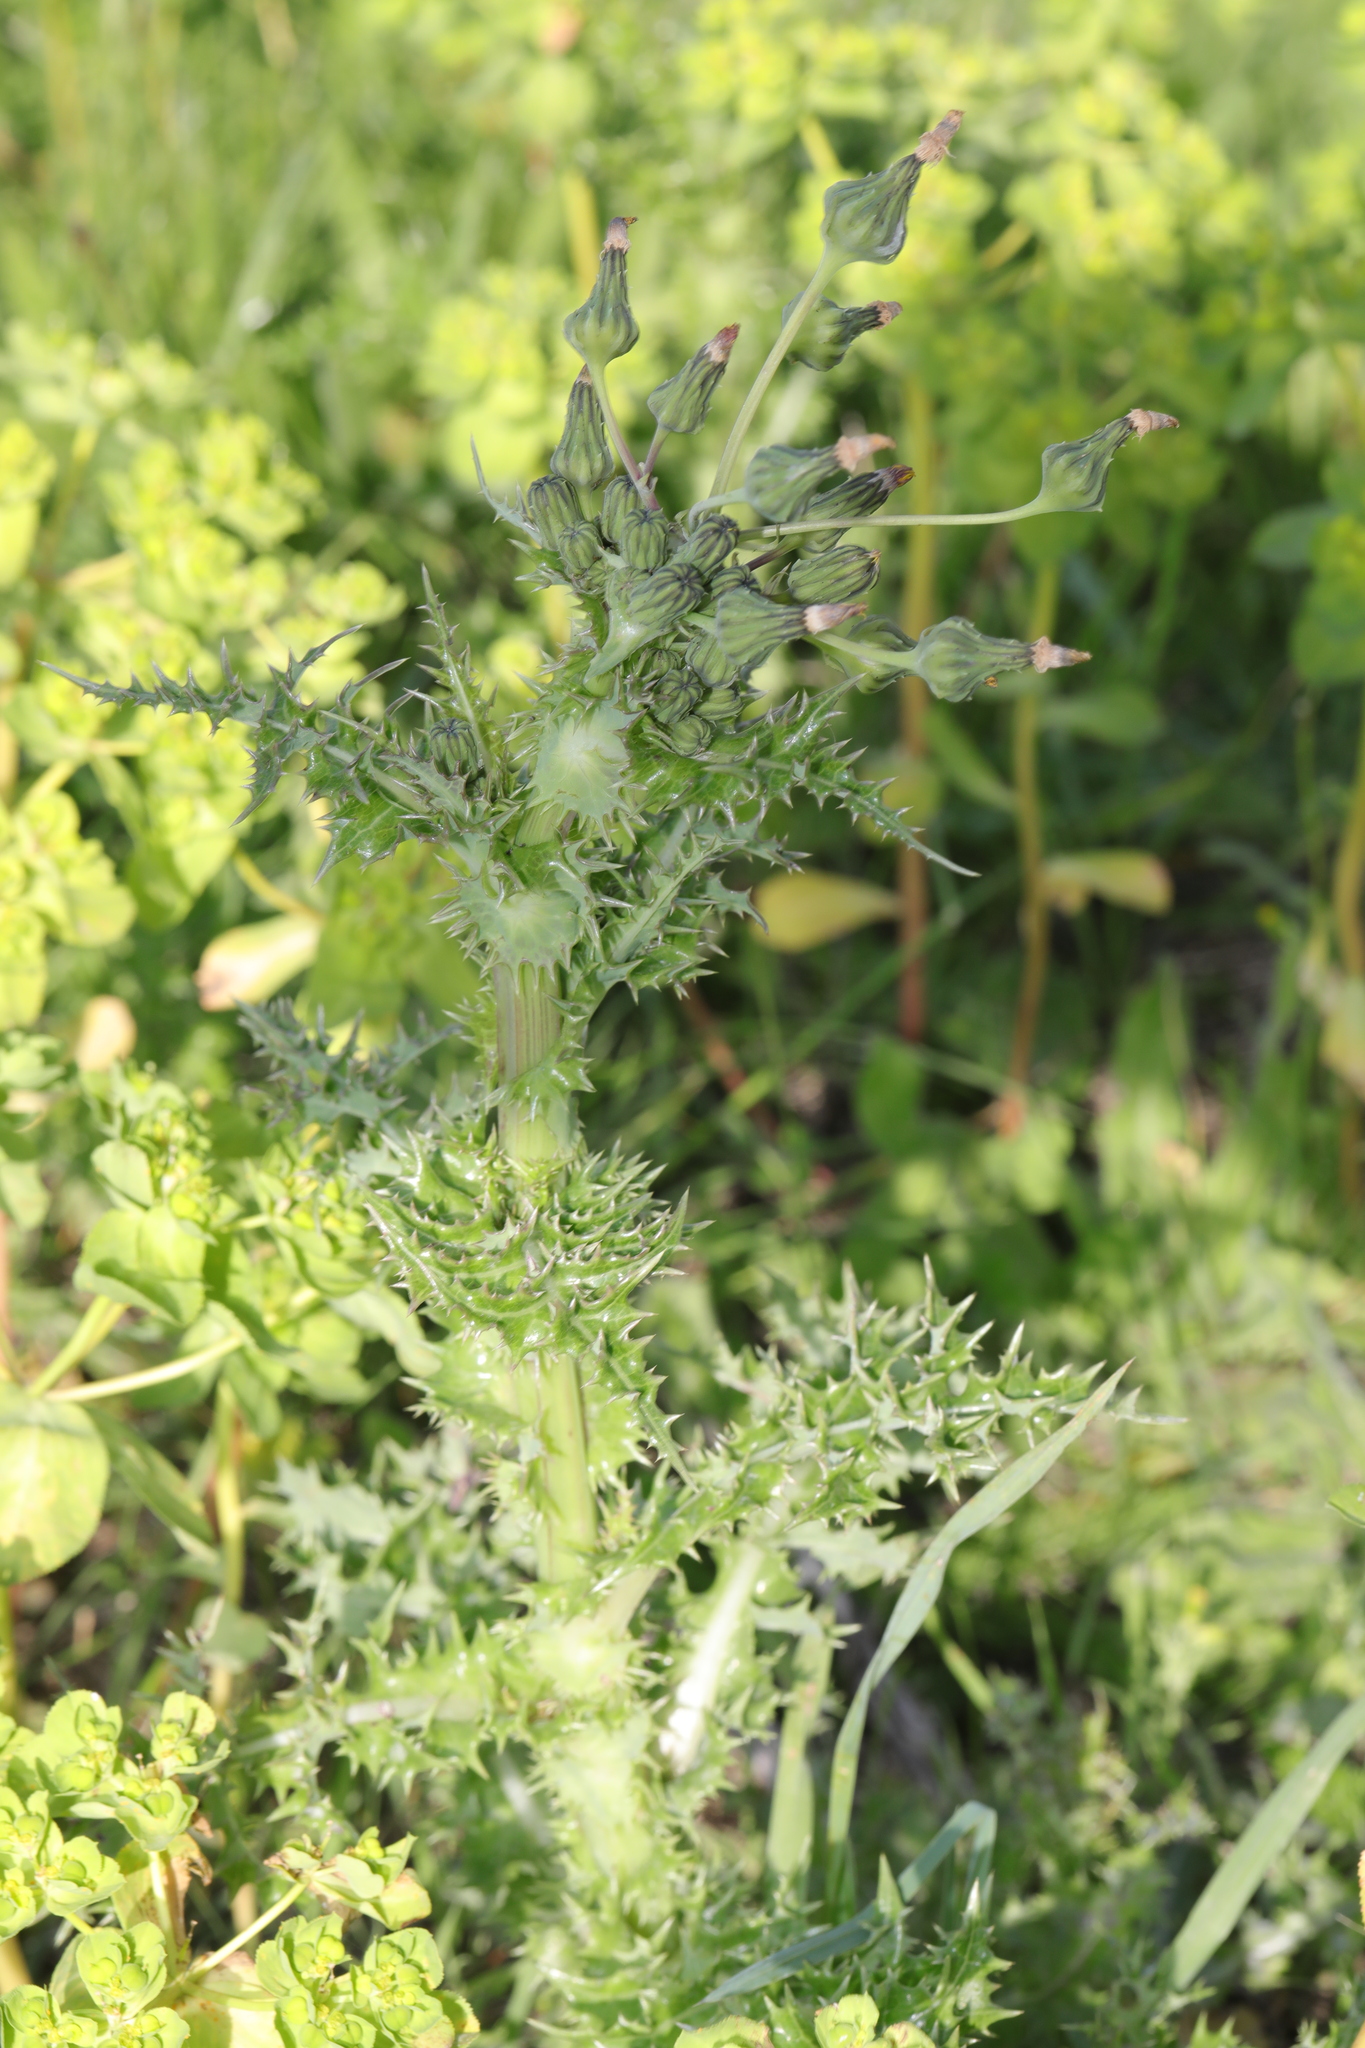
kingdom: Plantae
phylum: Tracheophyta
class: Magnoliopsida
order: Asterales
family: Asteraceae
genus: Sonchus
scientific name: Sonchus asper
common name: Prickly sow-thistle
